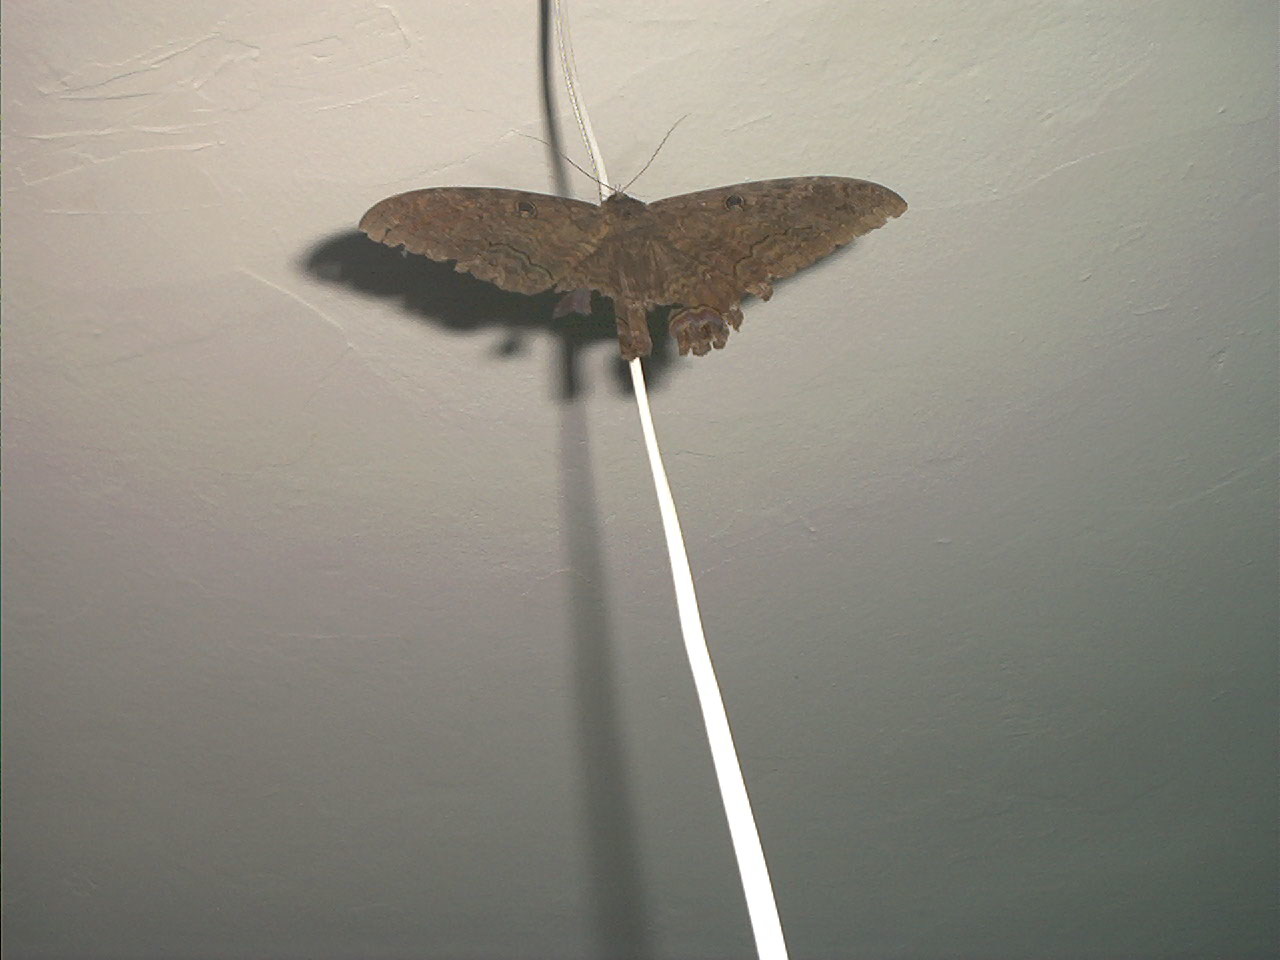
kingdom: Animalia
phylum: Arthropoda
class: Insecta
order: Lepidoptera
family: Erebidae
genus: Ascalapha
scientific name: Ascalapha odorata
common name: Black witch
